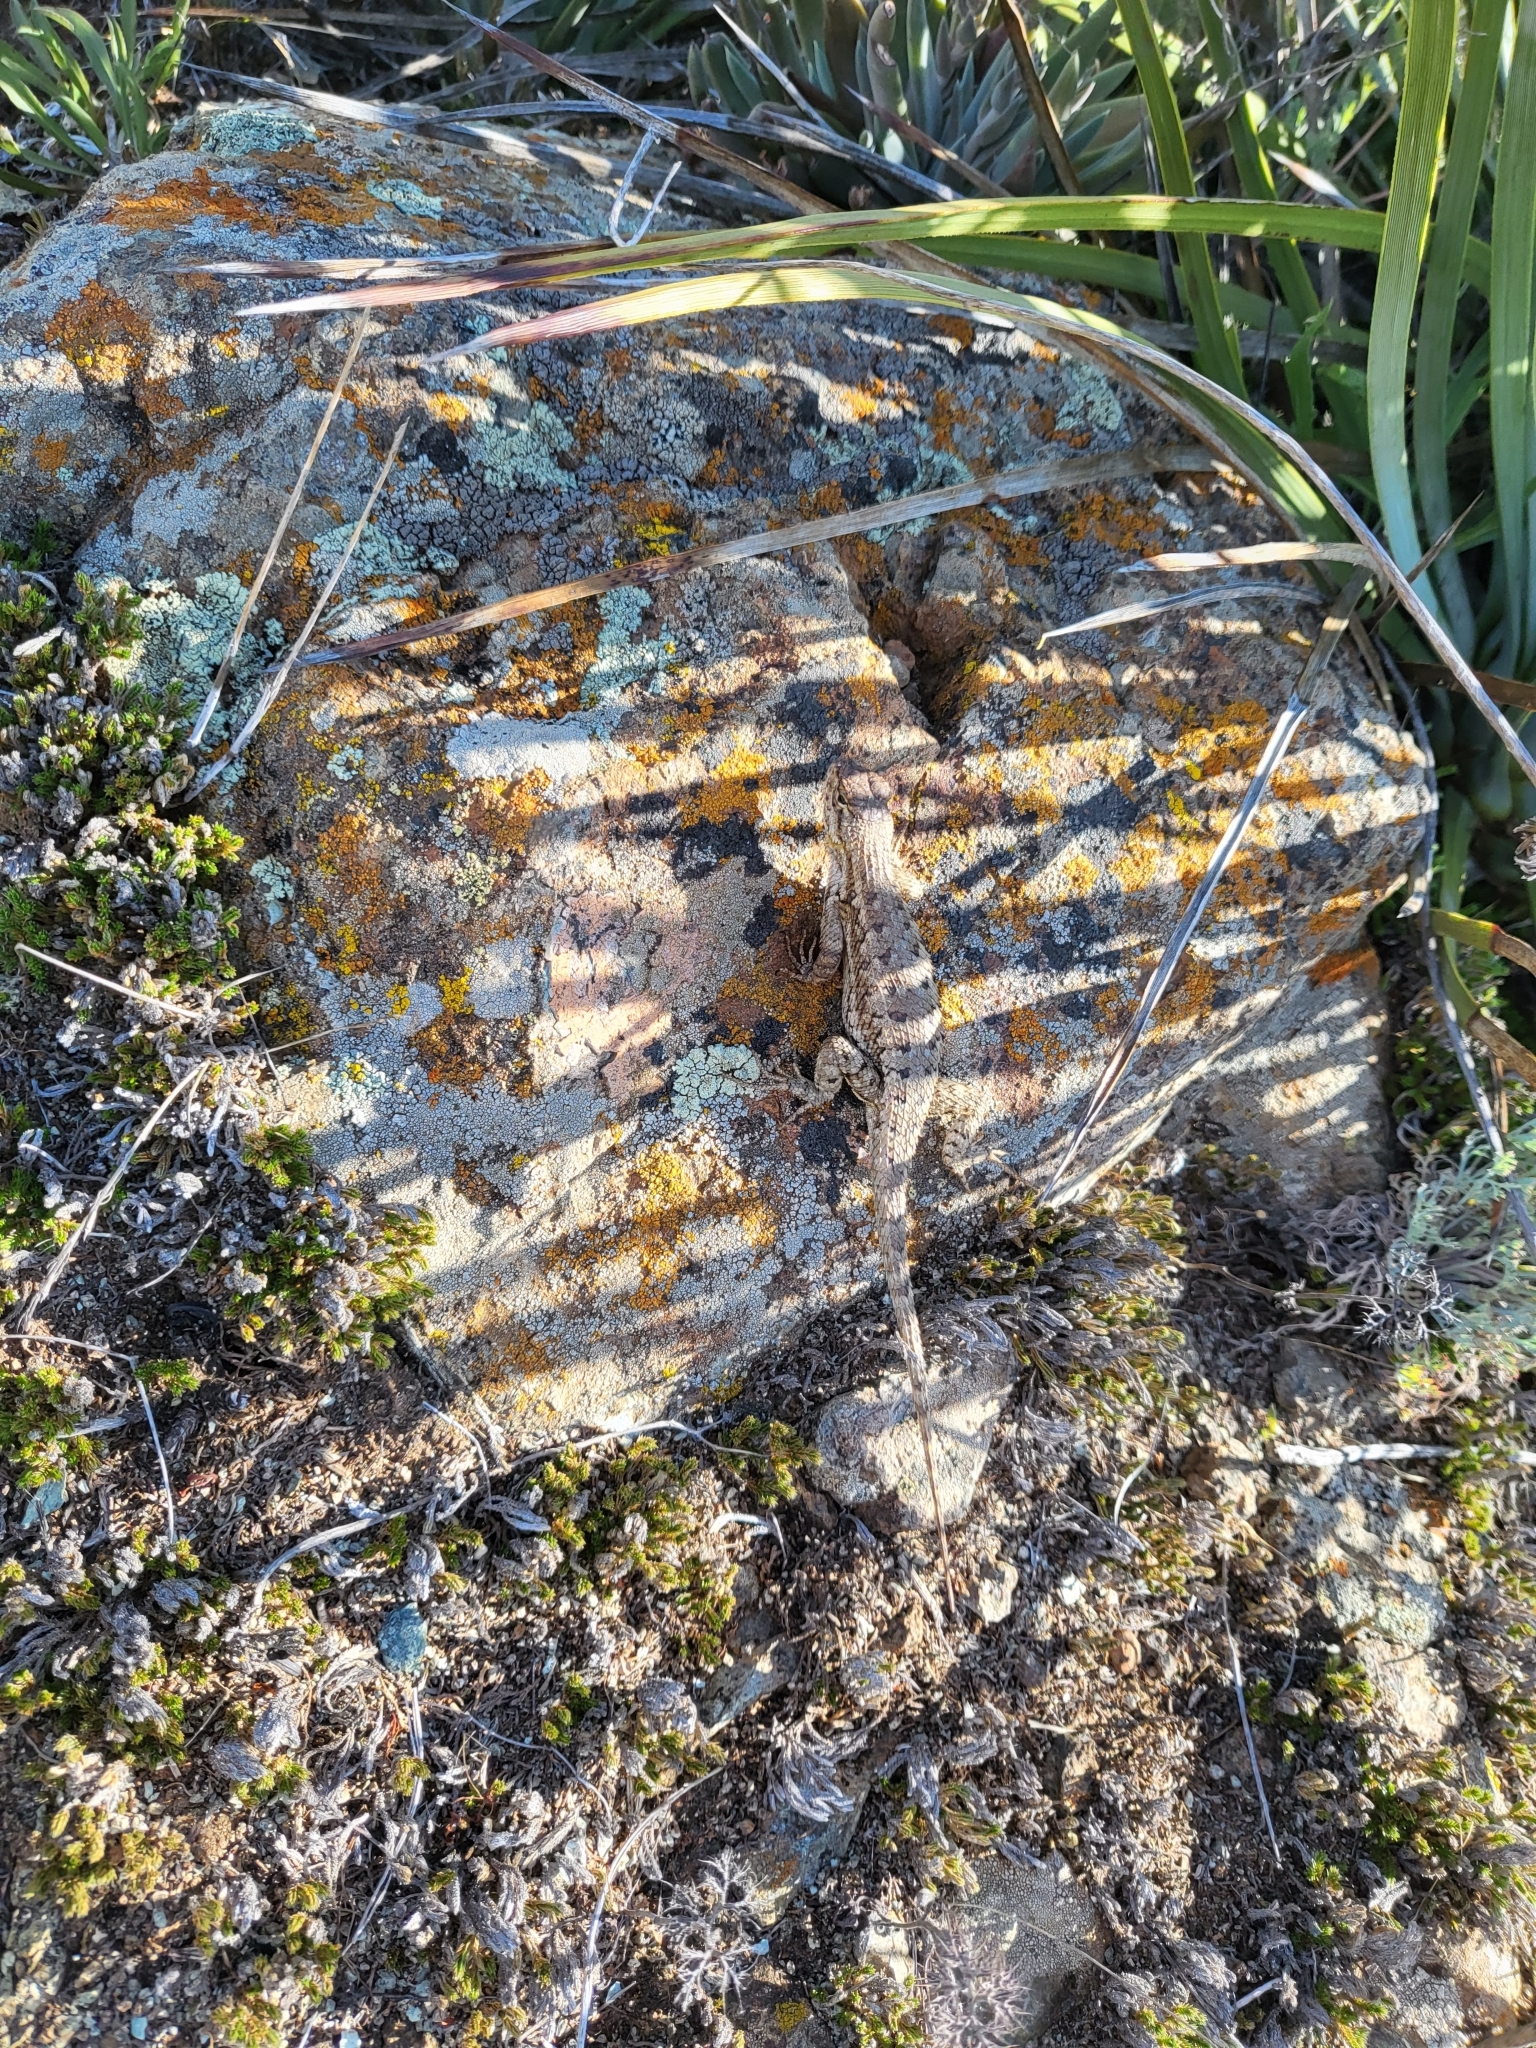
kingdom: Animalia
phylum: Chordata
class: Squamata
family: Phrynosomatidae
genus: Sceloporus
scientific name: Sceloporus occidentalis
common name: Western fence lizard
